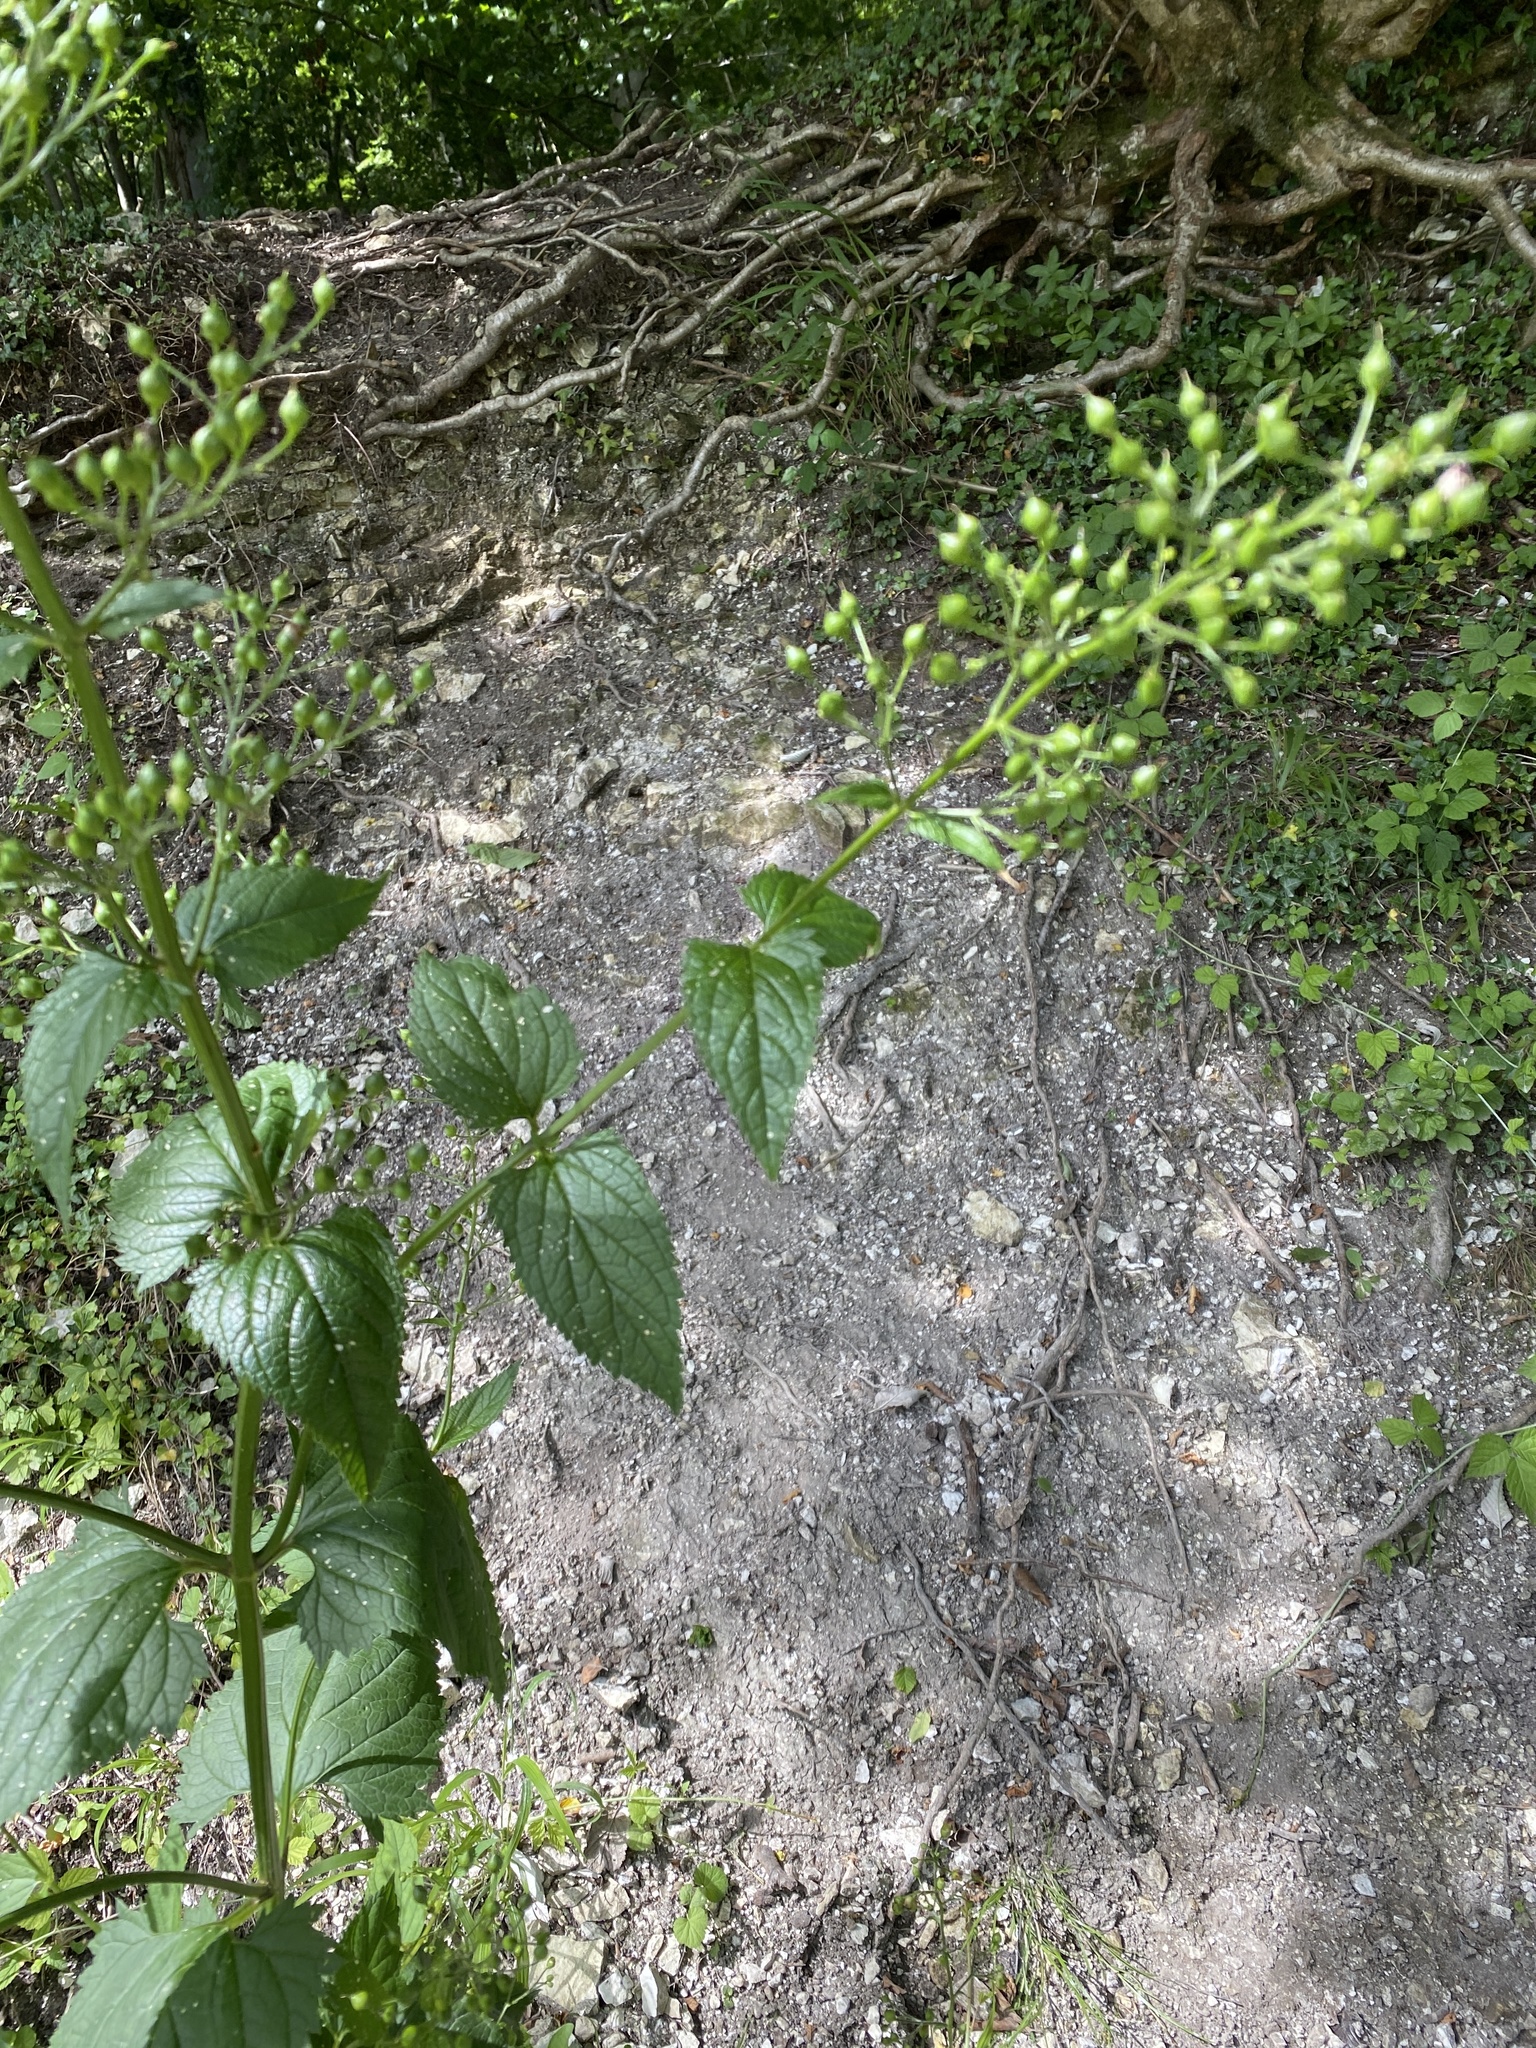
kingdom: Plantae
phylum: Tracheophyta
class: Magnoliopsida
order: Lamiales
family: Scrophulariaceae
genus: Scrophularia
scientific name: Scrophularia nodosa
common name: Common figwort
